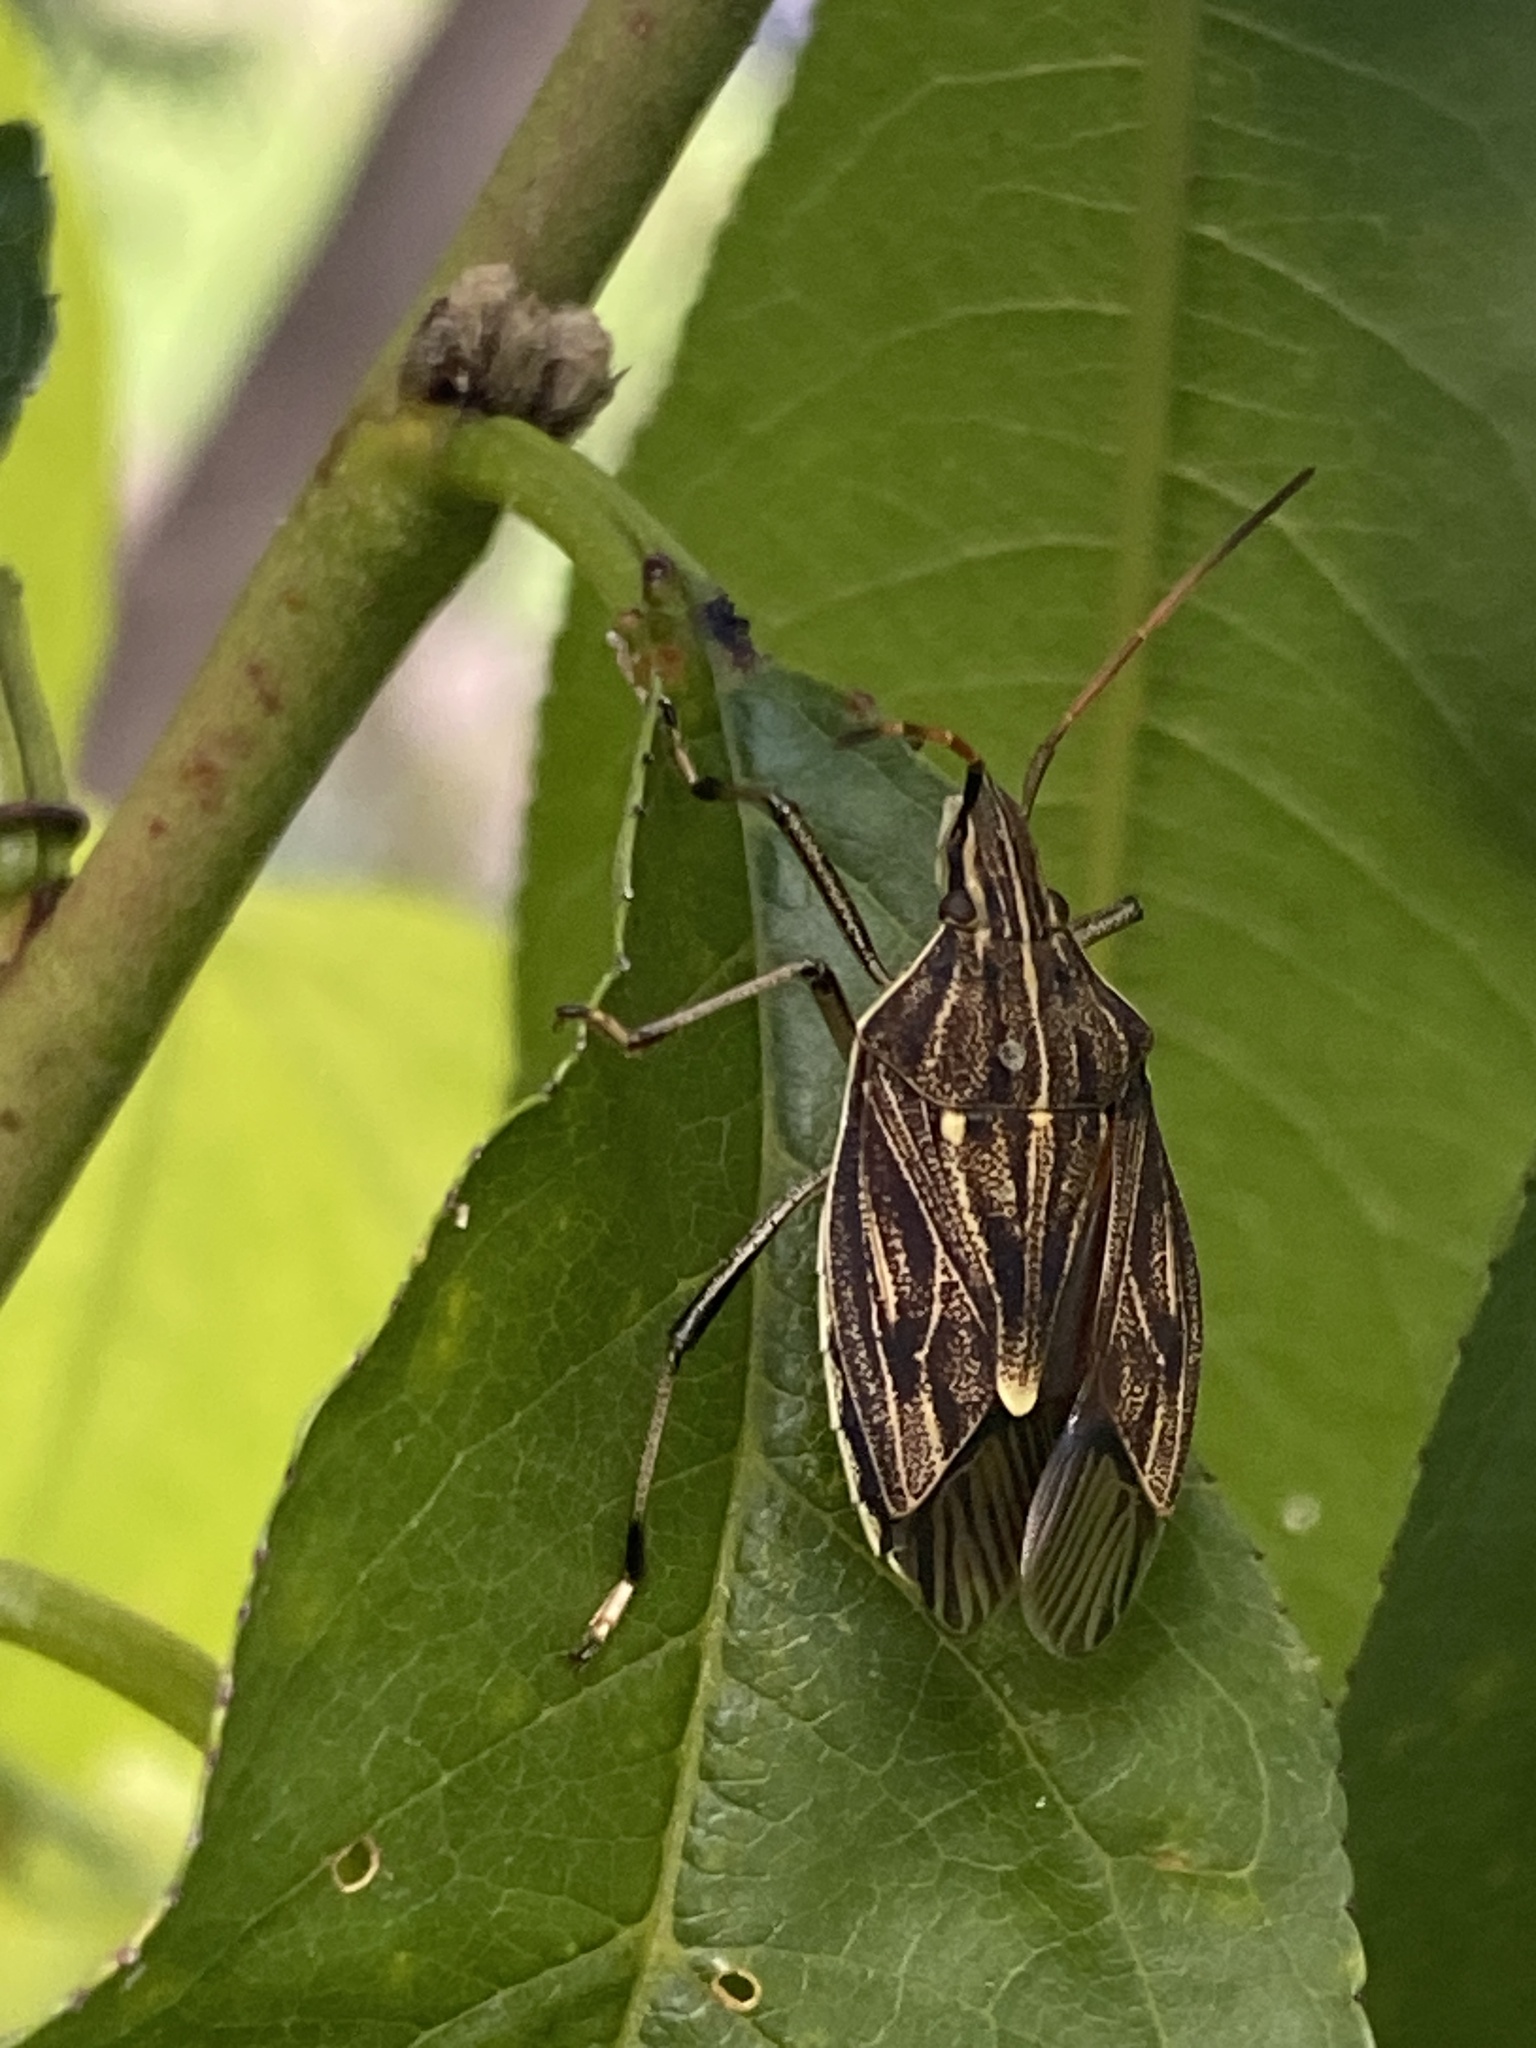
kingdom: Animalia
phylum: Arthropoda
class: Insecta
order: Hemiptera
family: Pentatomidae
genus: Poecilometis
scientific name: Poecilometis
